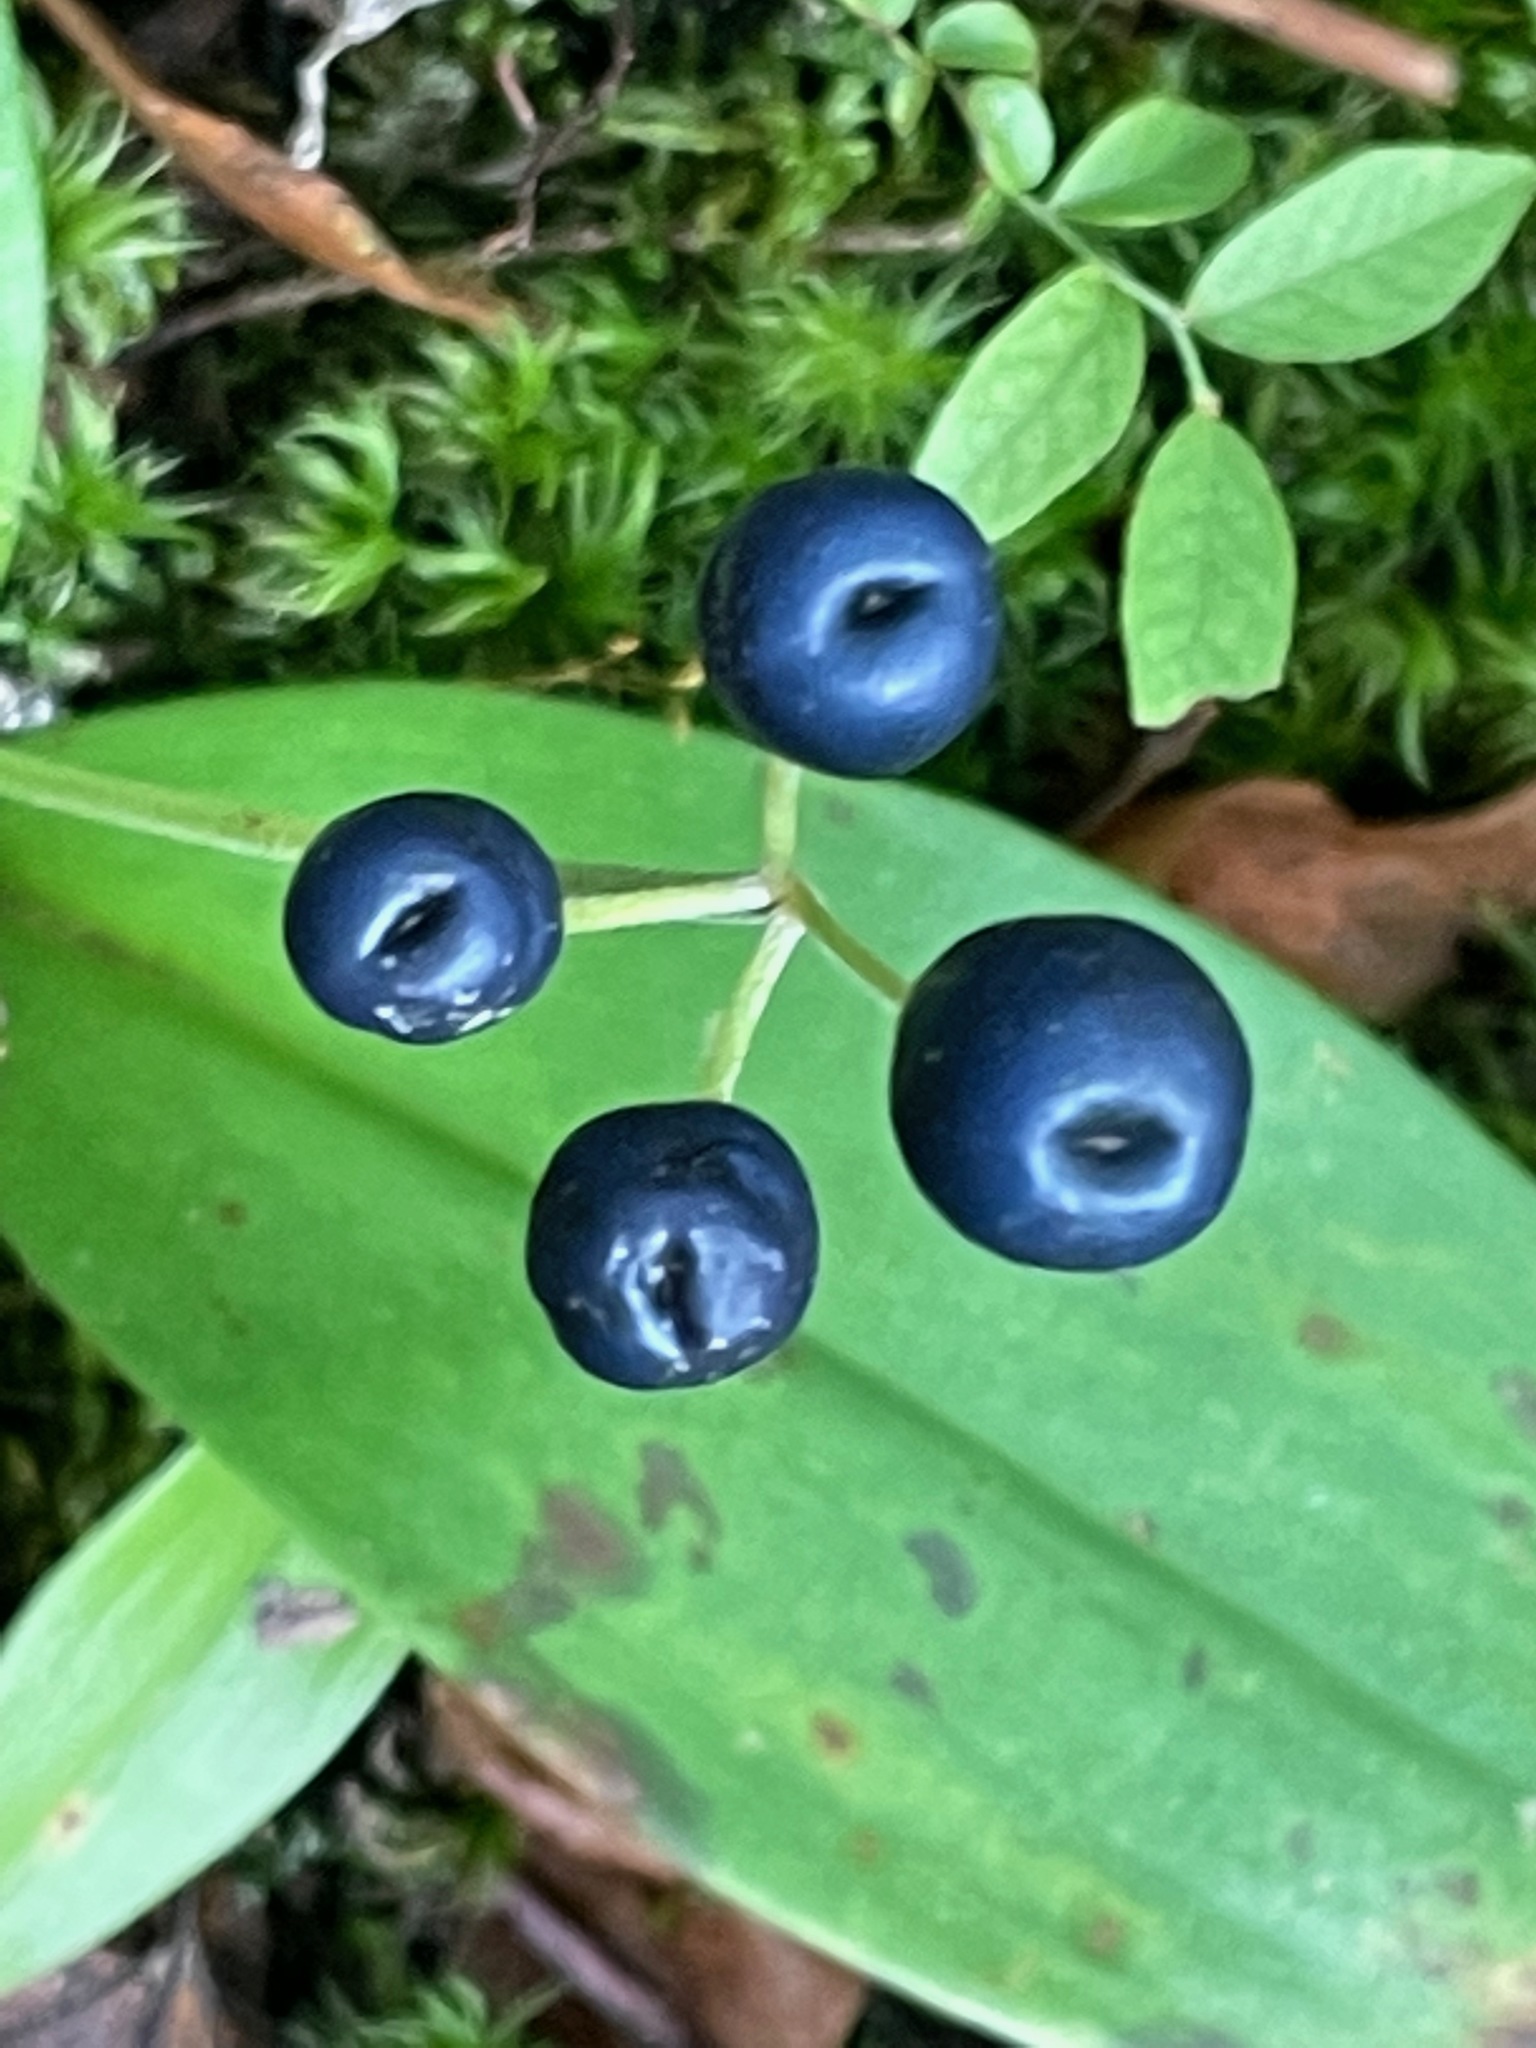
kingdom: Plantae
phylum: Tracheophyta
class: Liliopsida
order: Liliales
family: Liliaceae
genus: Clintonia
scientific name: Clintonia borealis
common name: Yellow clintonia
